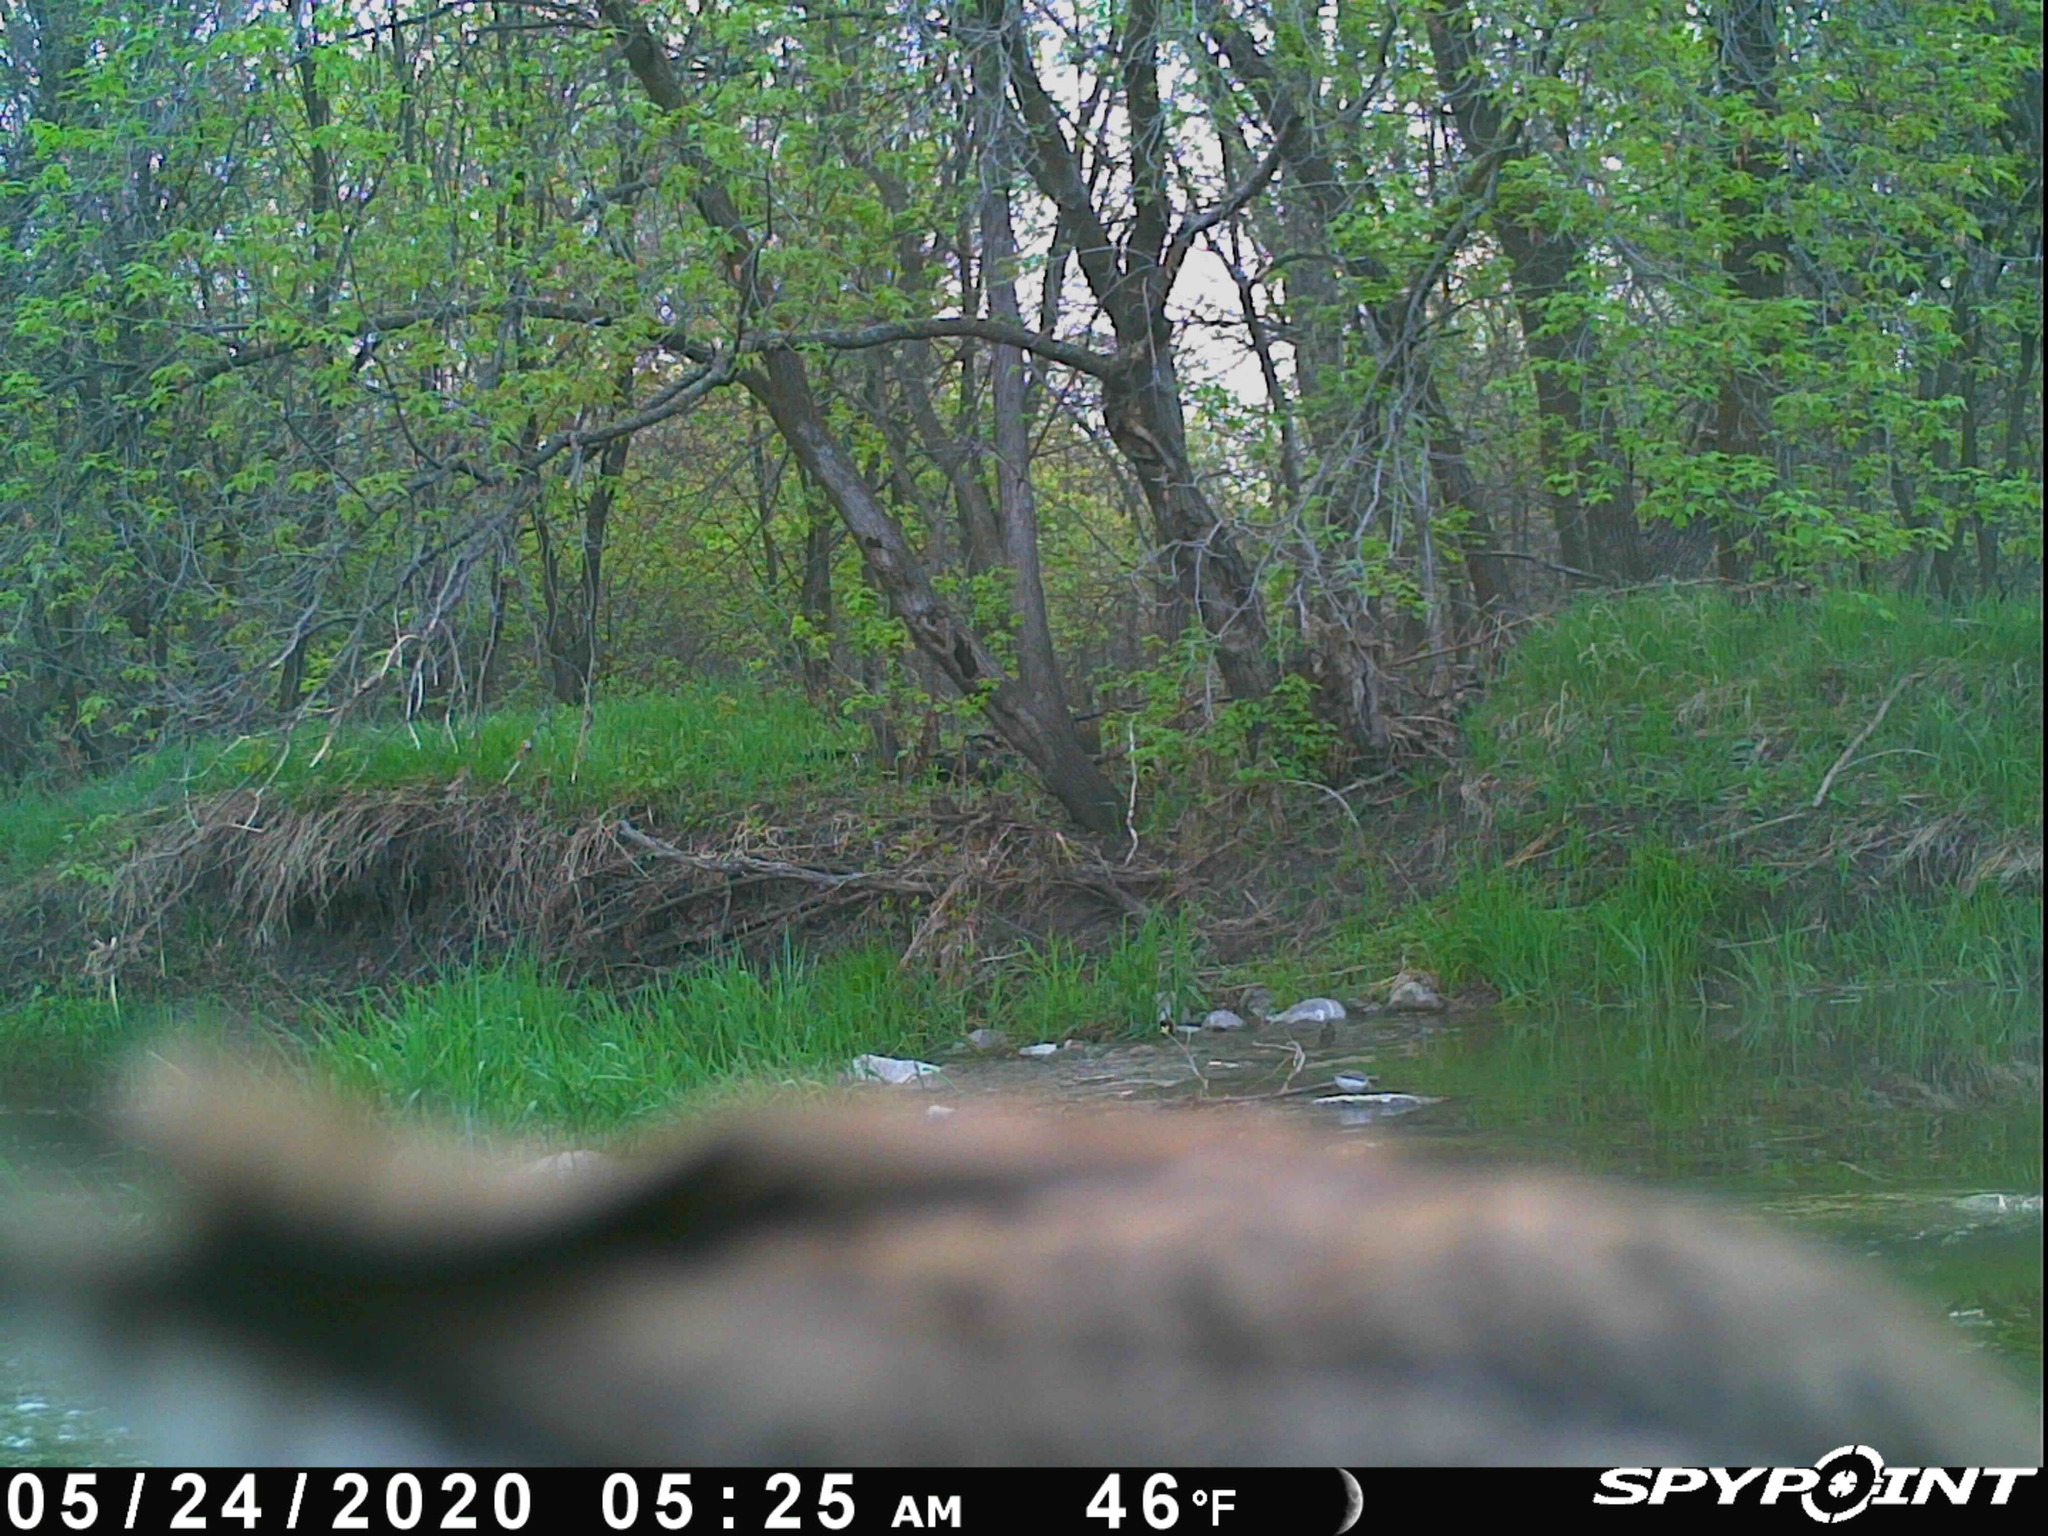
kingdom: Animalia
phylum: Chordata
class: Aves
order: Charadriiformes
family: Scolopacidae
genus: Actitis
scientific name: Actitis macularius
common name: Spotted sandpiper
